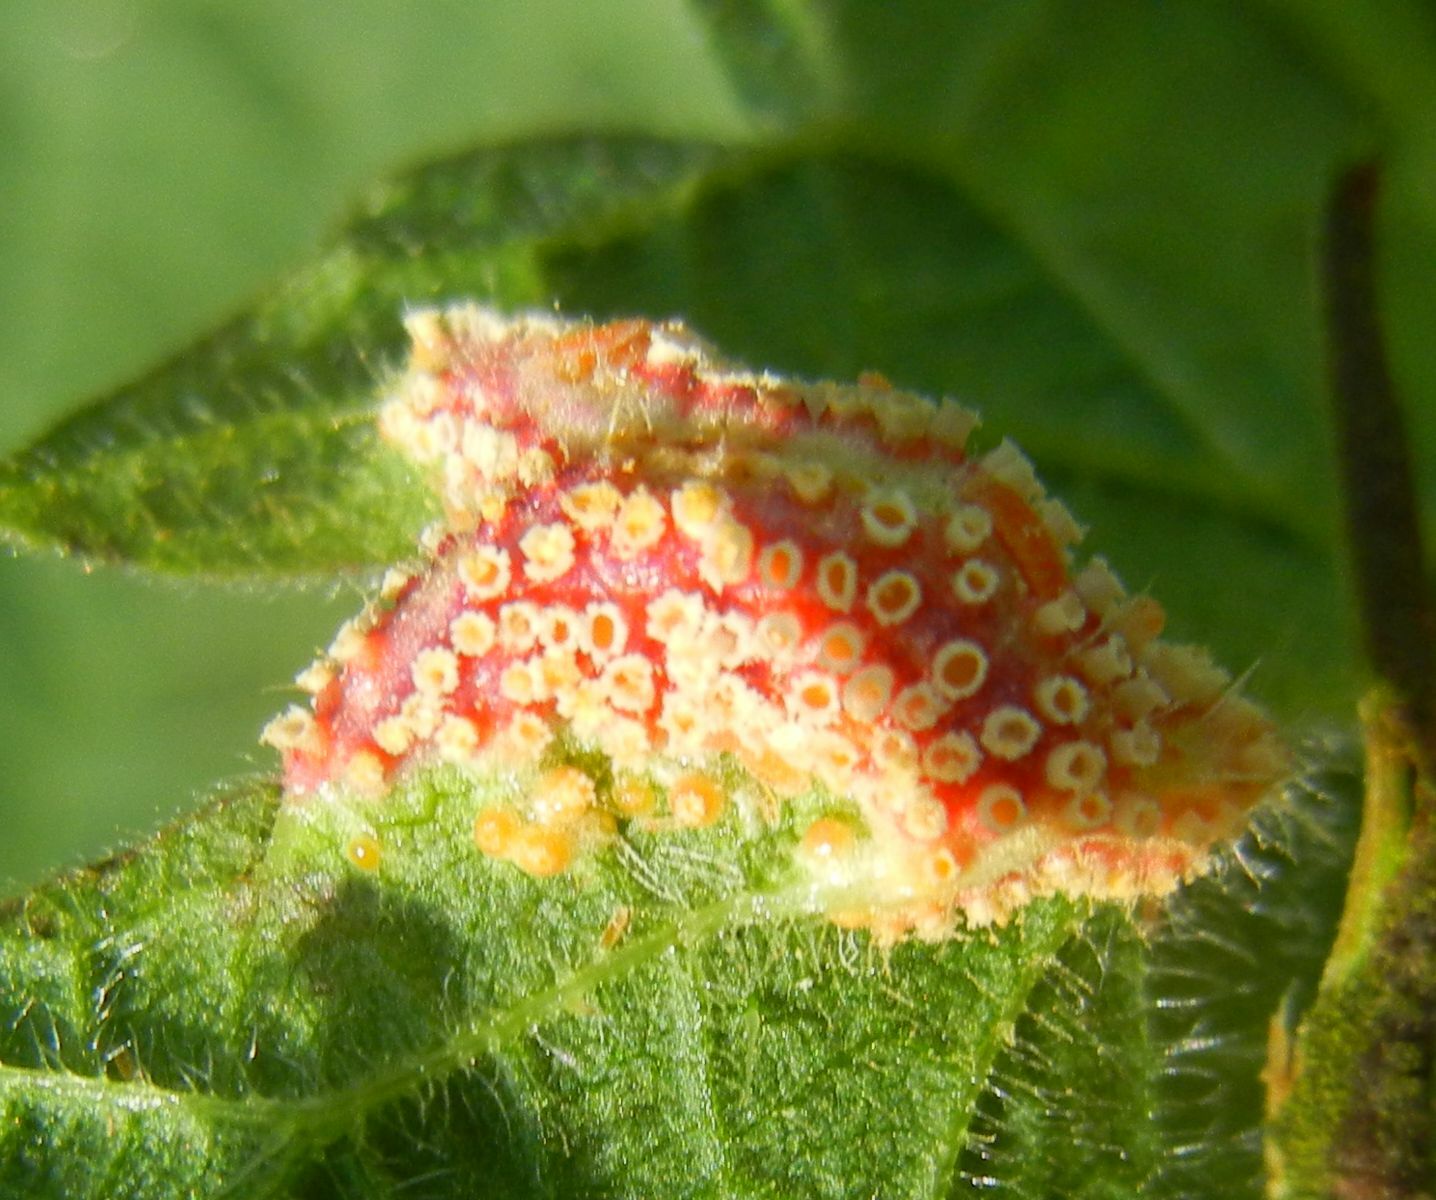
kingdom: Fungi
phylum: Basidiomycota
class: Pucciniomycetes
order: Pucciniales
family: Pucciniaceae
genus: Puccinia
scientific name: Puccinia urticata
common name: Nettle clustercup rust fungus
